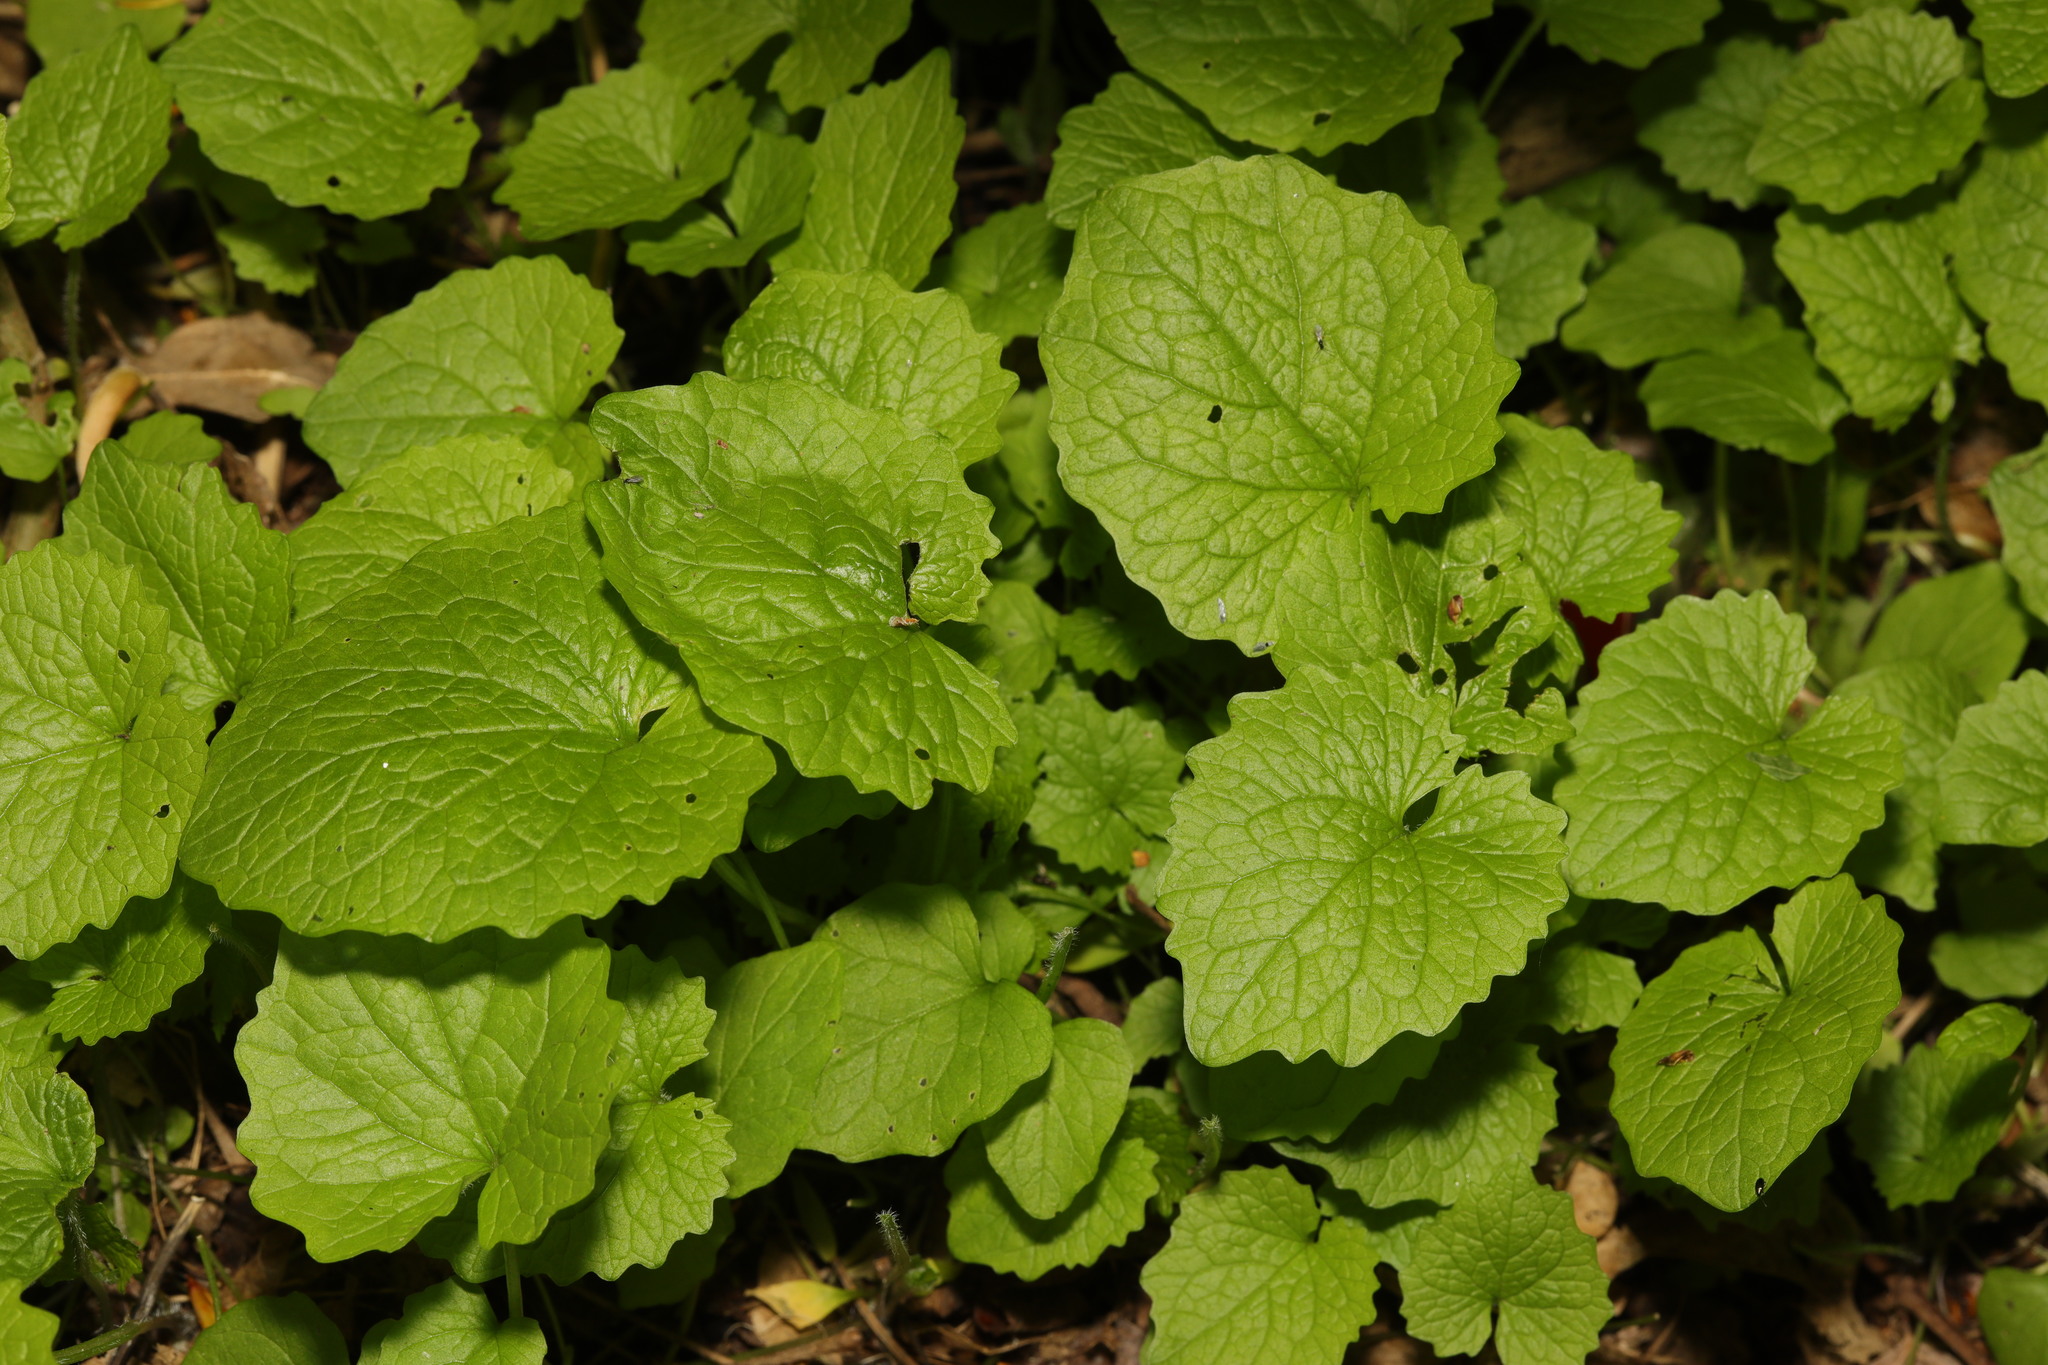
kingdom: Plantae
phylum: Tracheophyta
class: Magnoliopsida
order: Brassicales
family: Brassicaceae
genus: Alliaria
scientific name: Alliaria petiolata
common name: Garlic mustard
